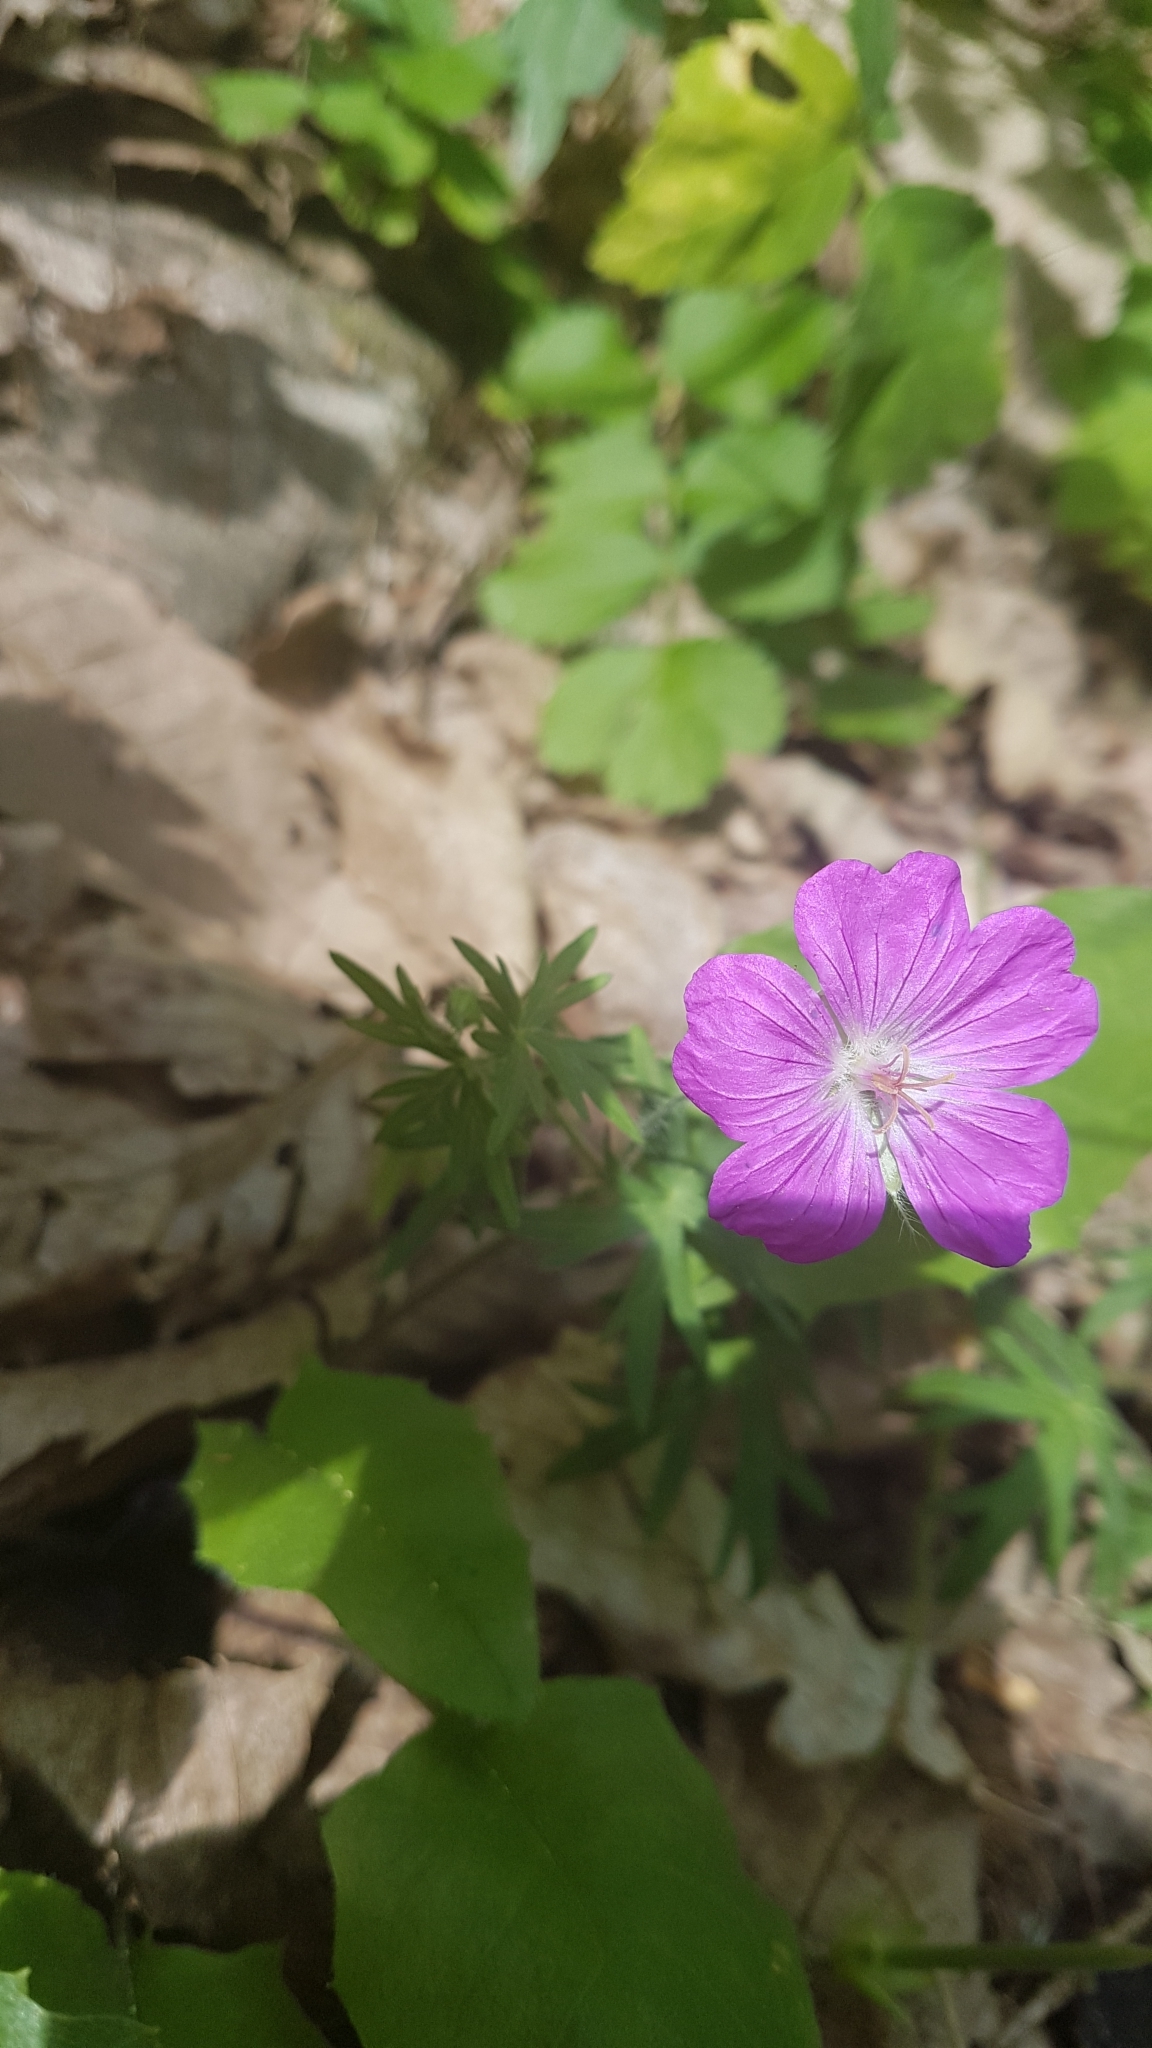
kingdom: Plantae
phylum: Tracheophyta
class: Magnoliopsida
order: Geraniales
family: Geraniaceae
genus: Geranium
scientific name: Geranium sanguineum
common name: Bloody crane's-bill
